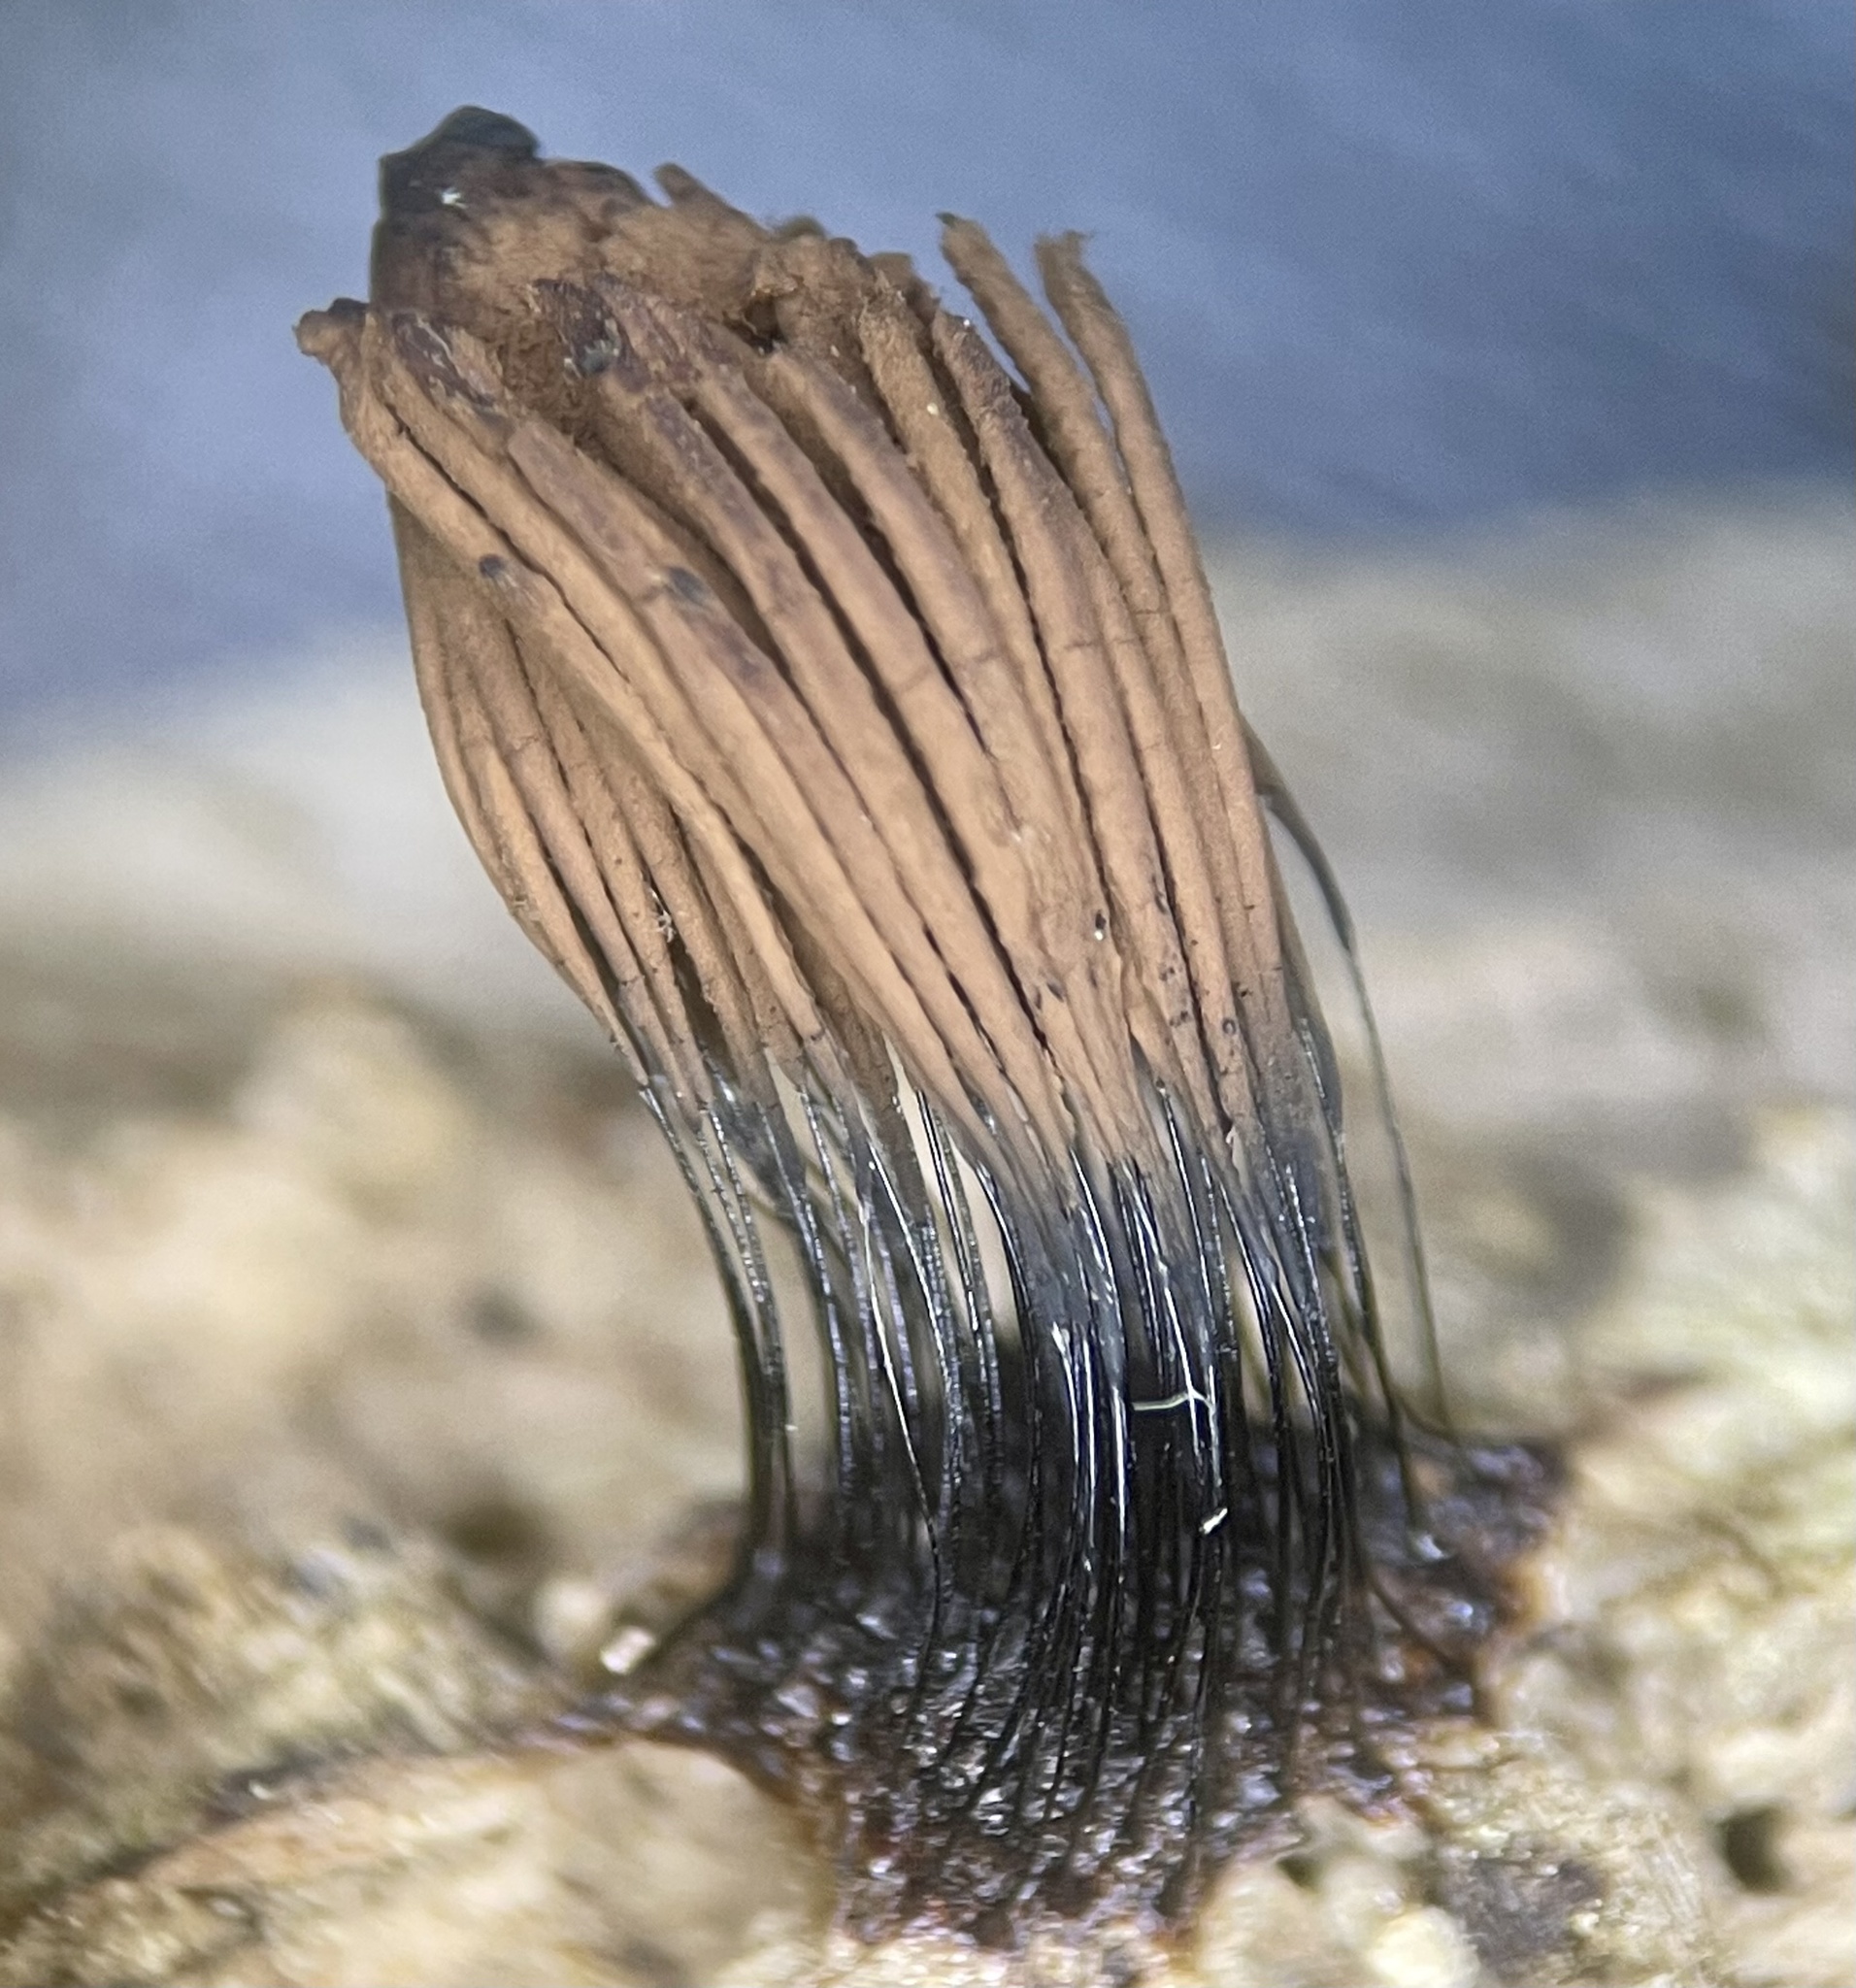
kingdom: Protozoa
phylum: Mycetozoa
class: Myxomycetes
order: Stemonitidales
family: Stemonitidaceae
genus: Stemonitis
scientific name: Stemonitis flavogenita
